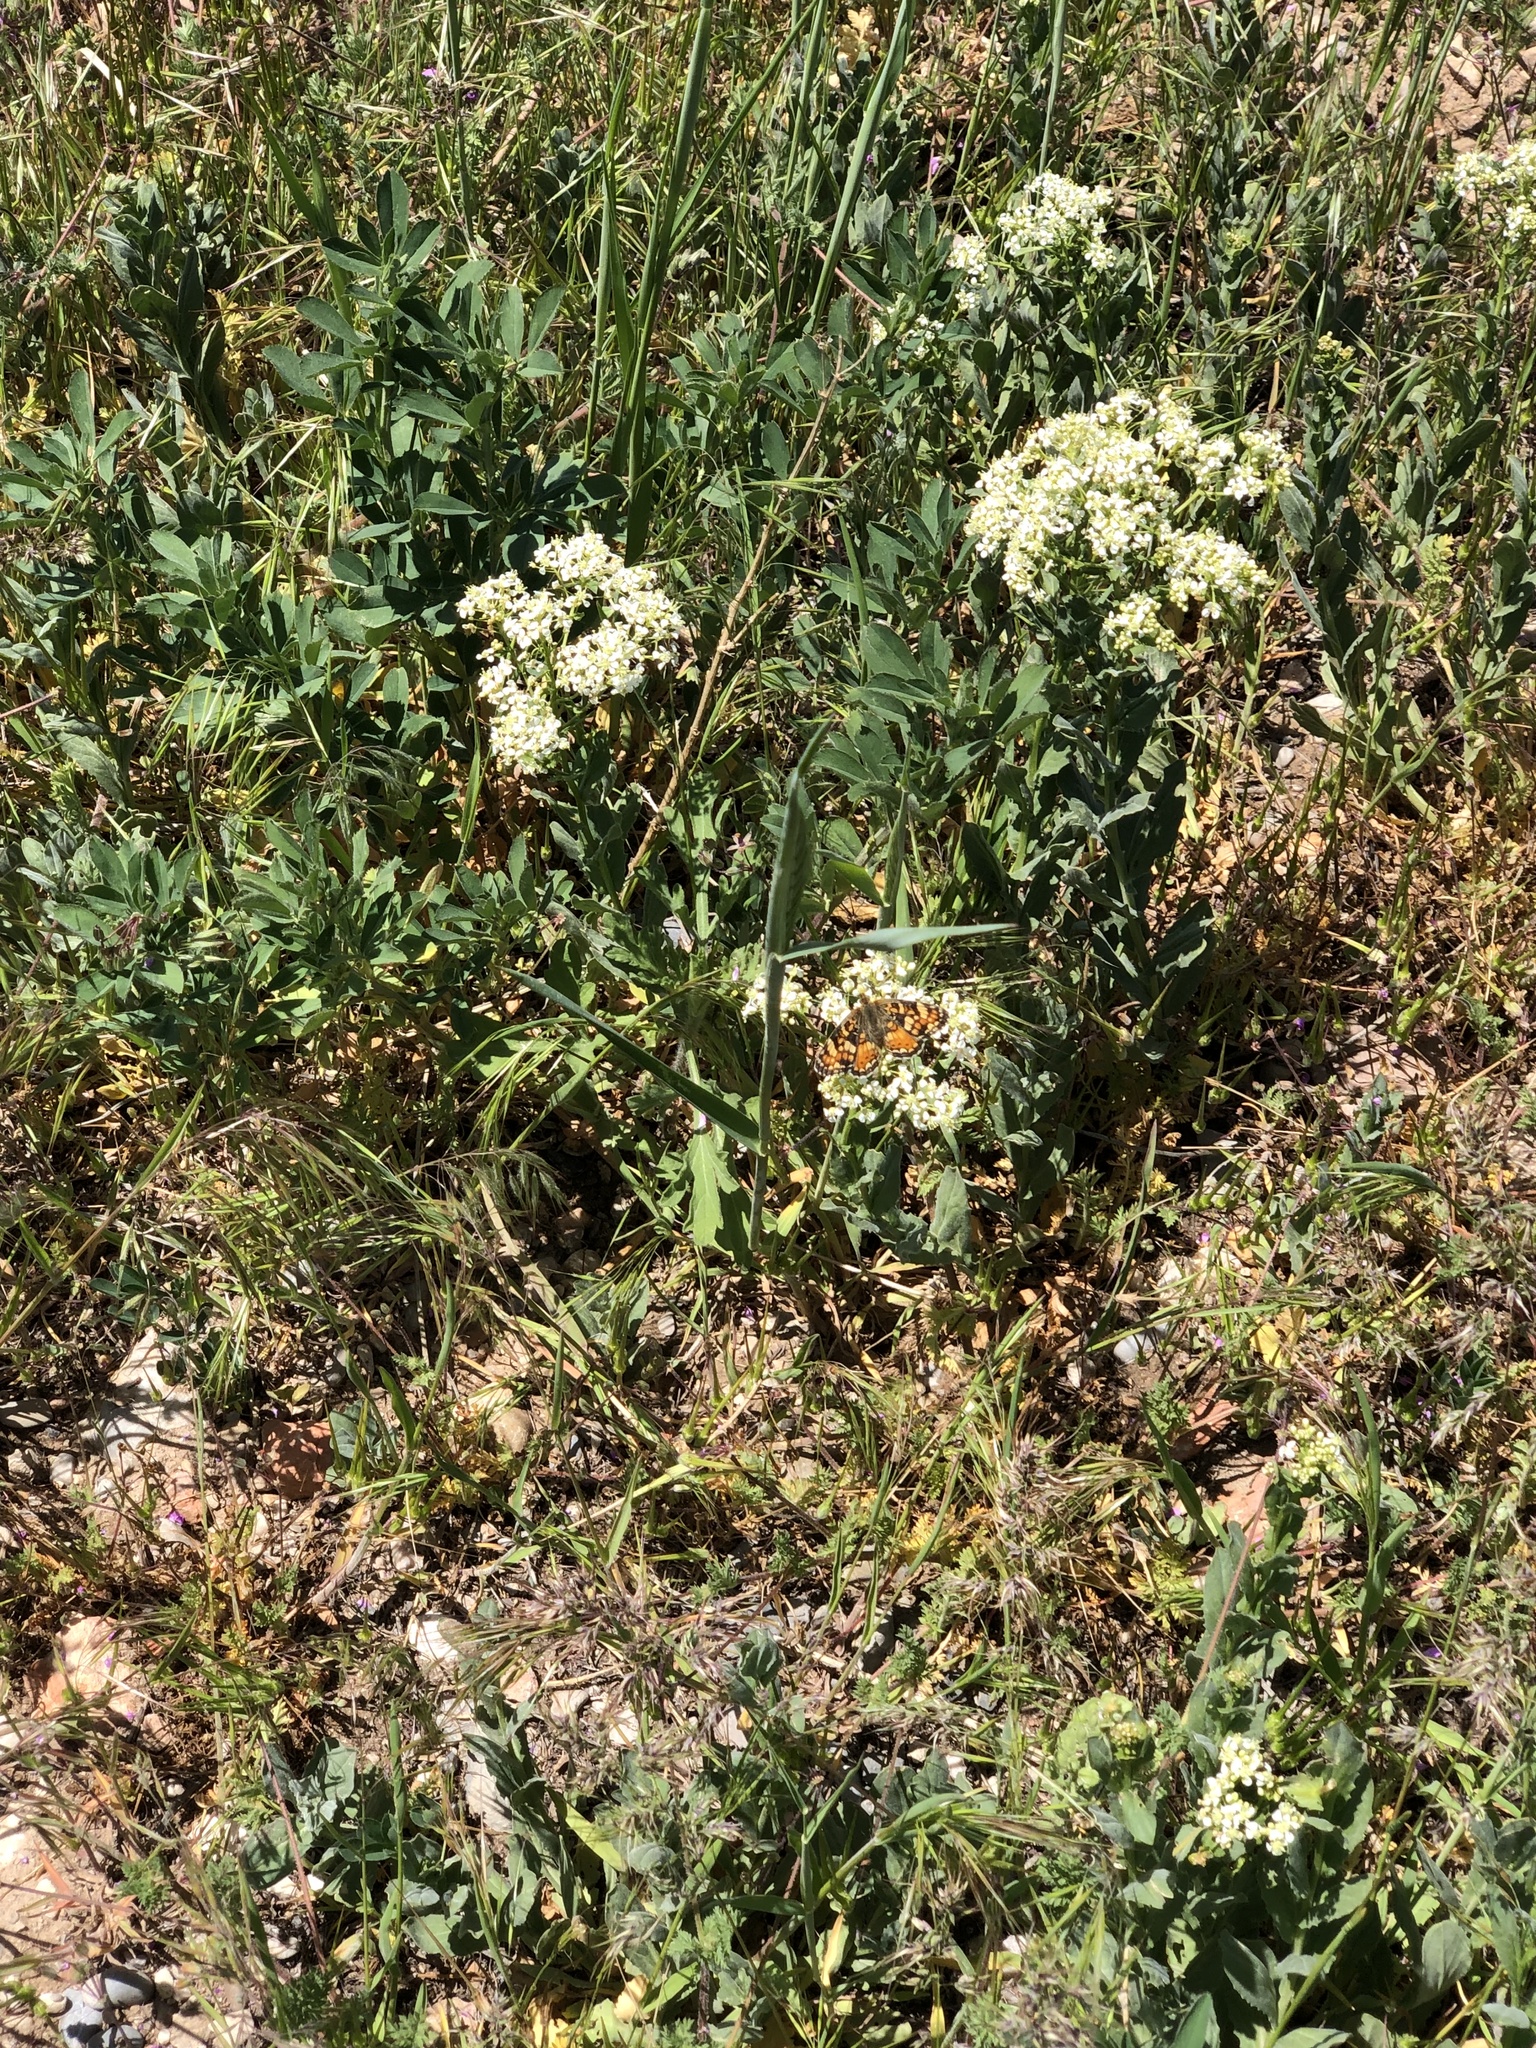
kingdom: Animalia
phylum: Arthropoda
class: Insecta
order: Lepidoptera
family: Nymphalidae
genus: Phyciodes
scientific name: Phyciodes tharos
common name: Pearl crescent
